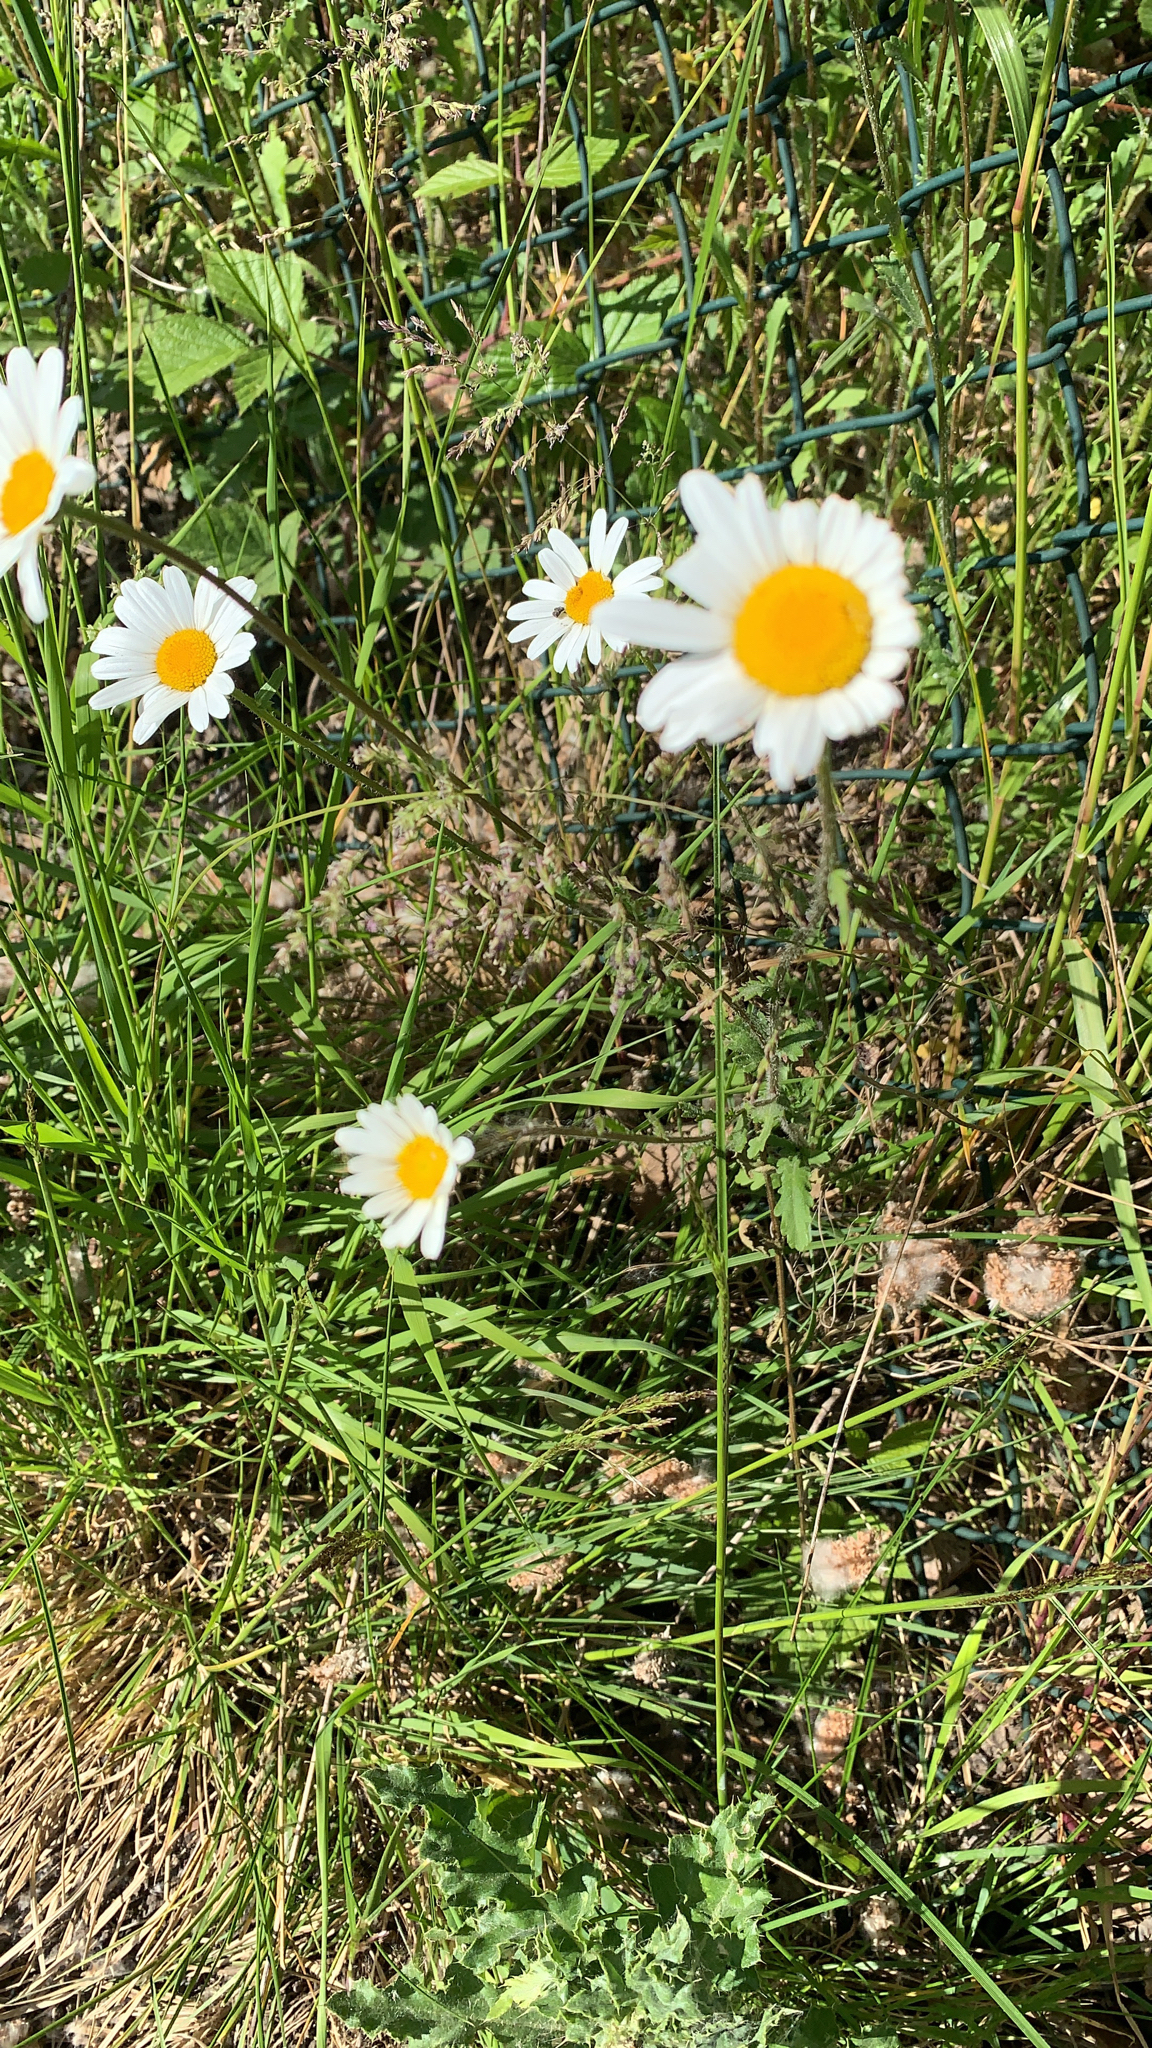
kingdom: Plantae
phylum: Tracheophyta
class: Magnoliopsida
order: Asterales
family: Asteraceae
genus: Leucanthemum
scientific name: Leucanthemum vulgare
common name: Oxeye daisy
